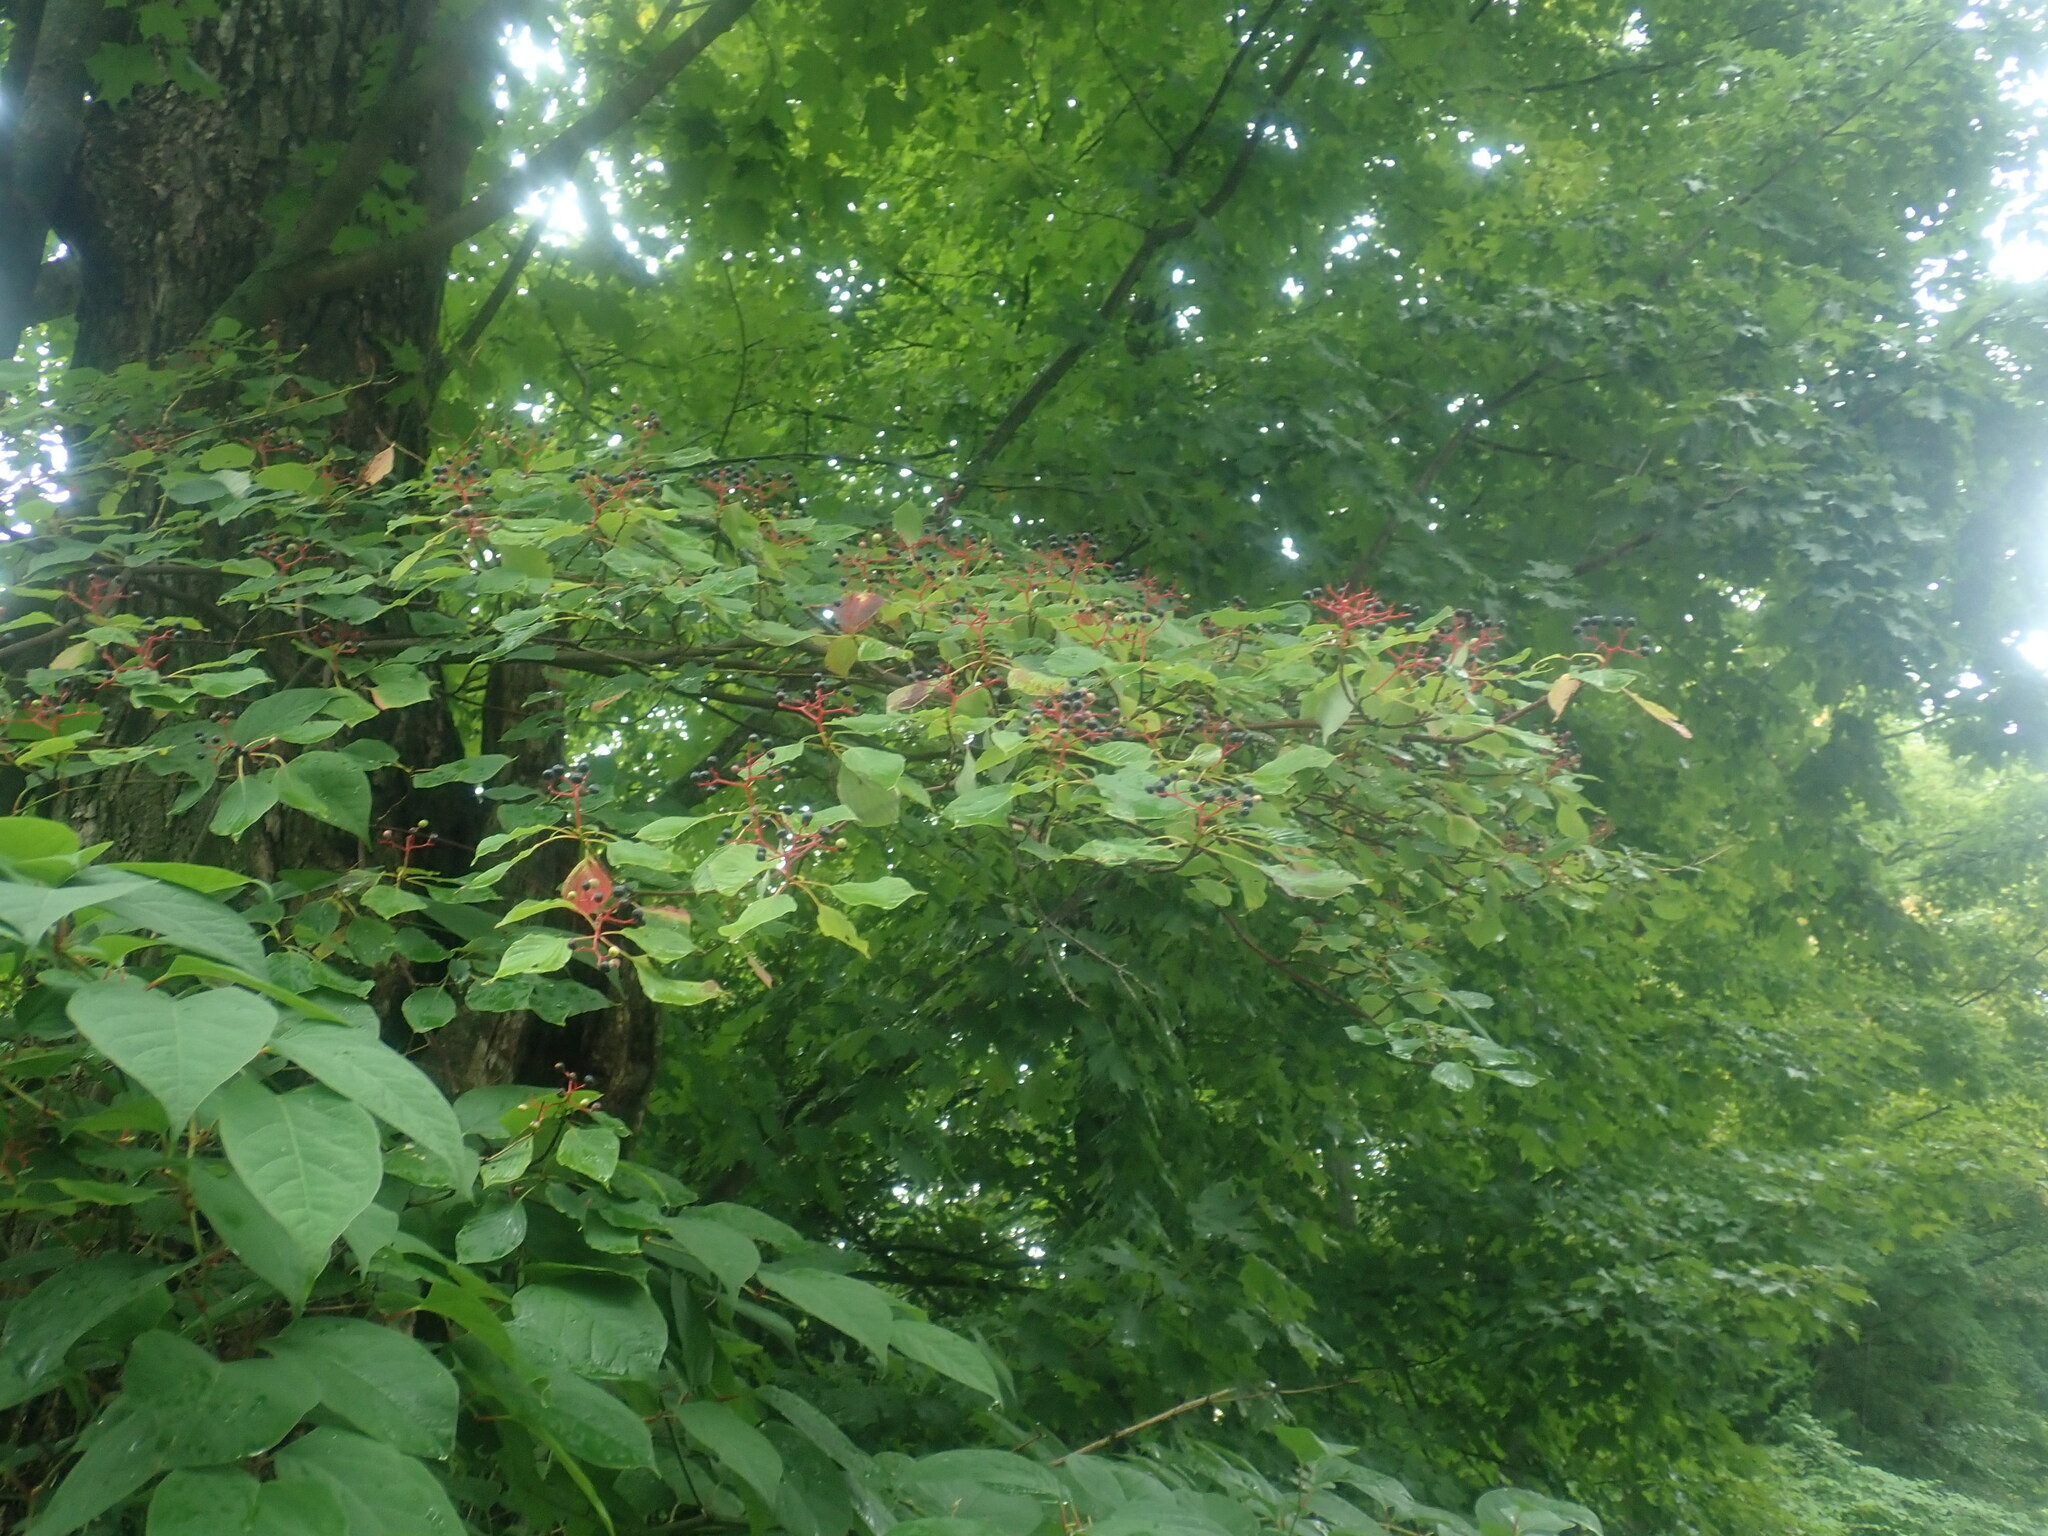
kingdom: Plantae
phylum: Tracheophyta
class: Magnoliopsida
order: Cornales
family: Cornaceae
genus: Cornus
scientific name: Cornus alternifolia
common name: Pagoda dogwood
